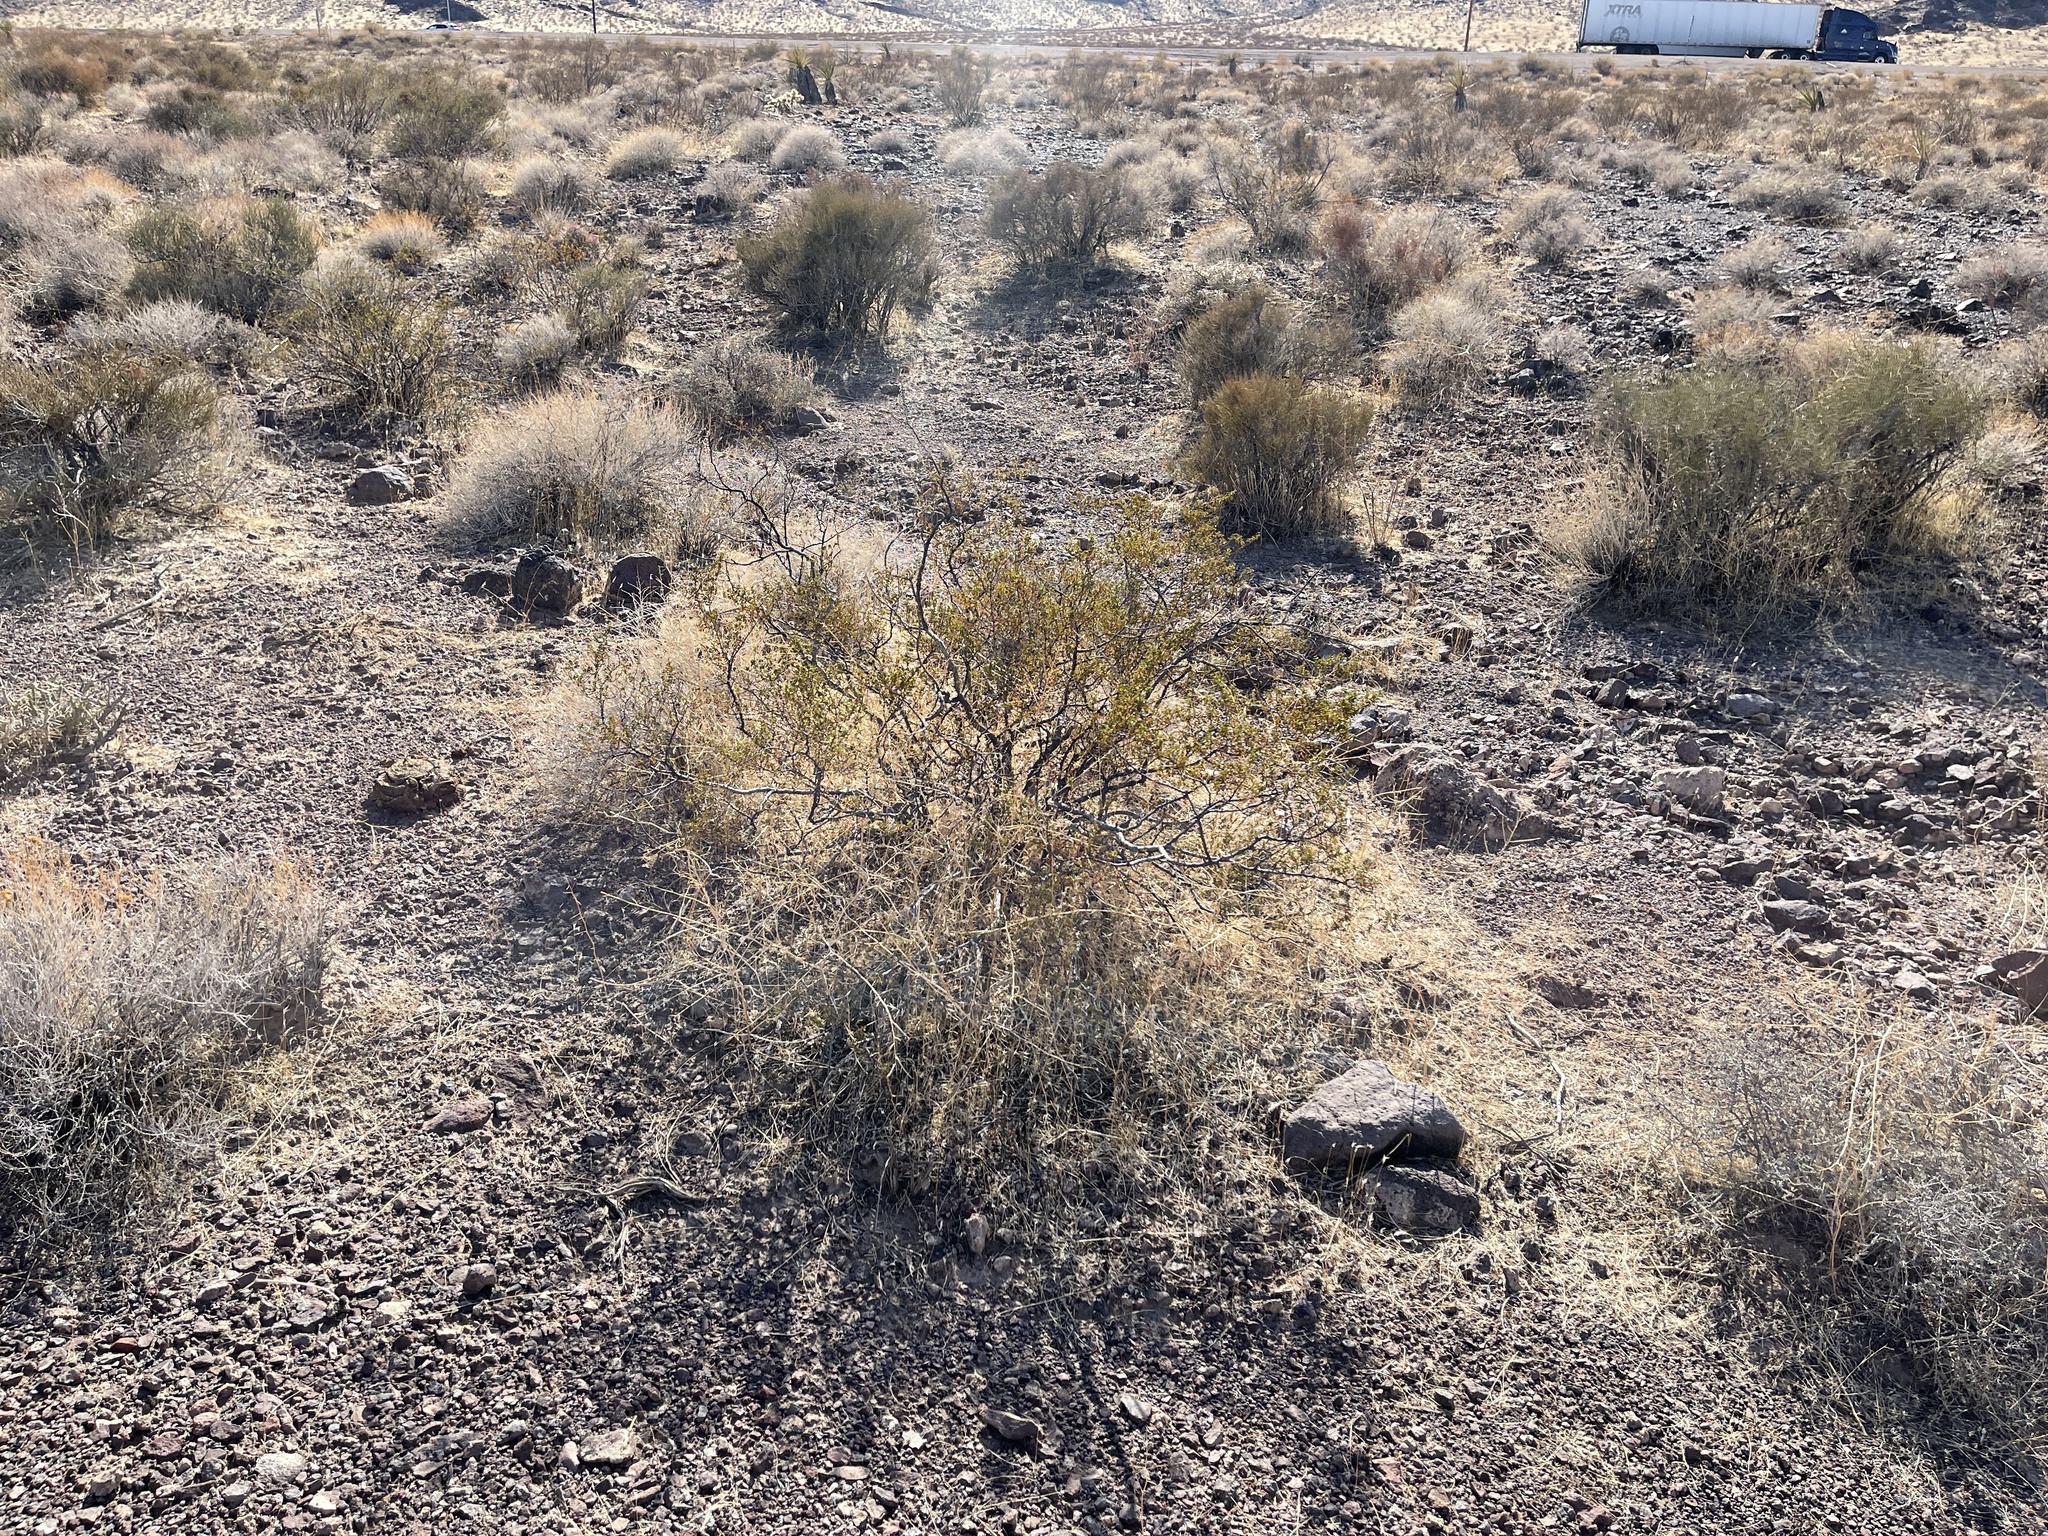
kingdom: Plantae
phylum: Tracheophyta
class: Magnoliopsida
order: Zygophyllales
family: Zygophyllaceae
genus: Larrea
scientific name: Larrea tridentata
